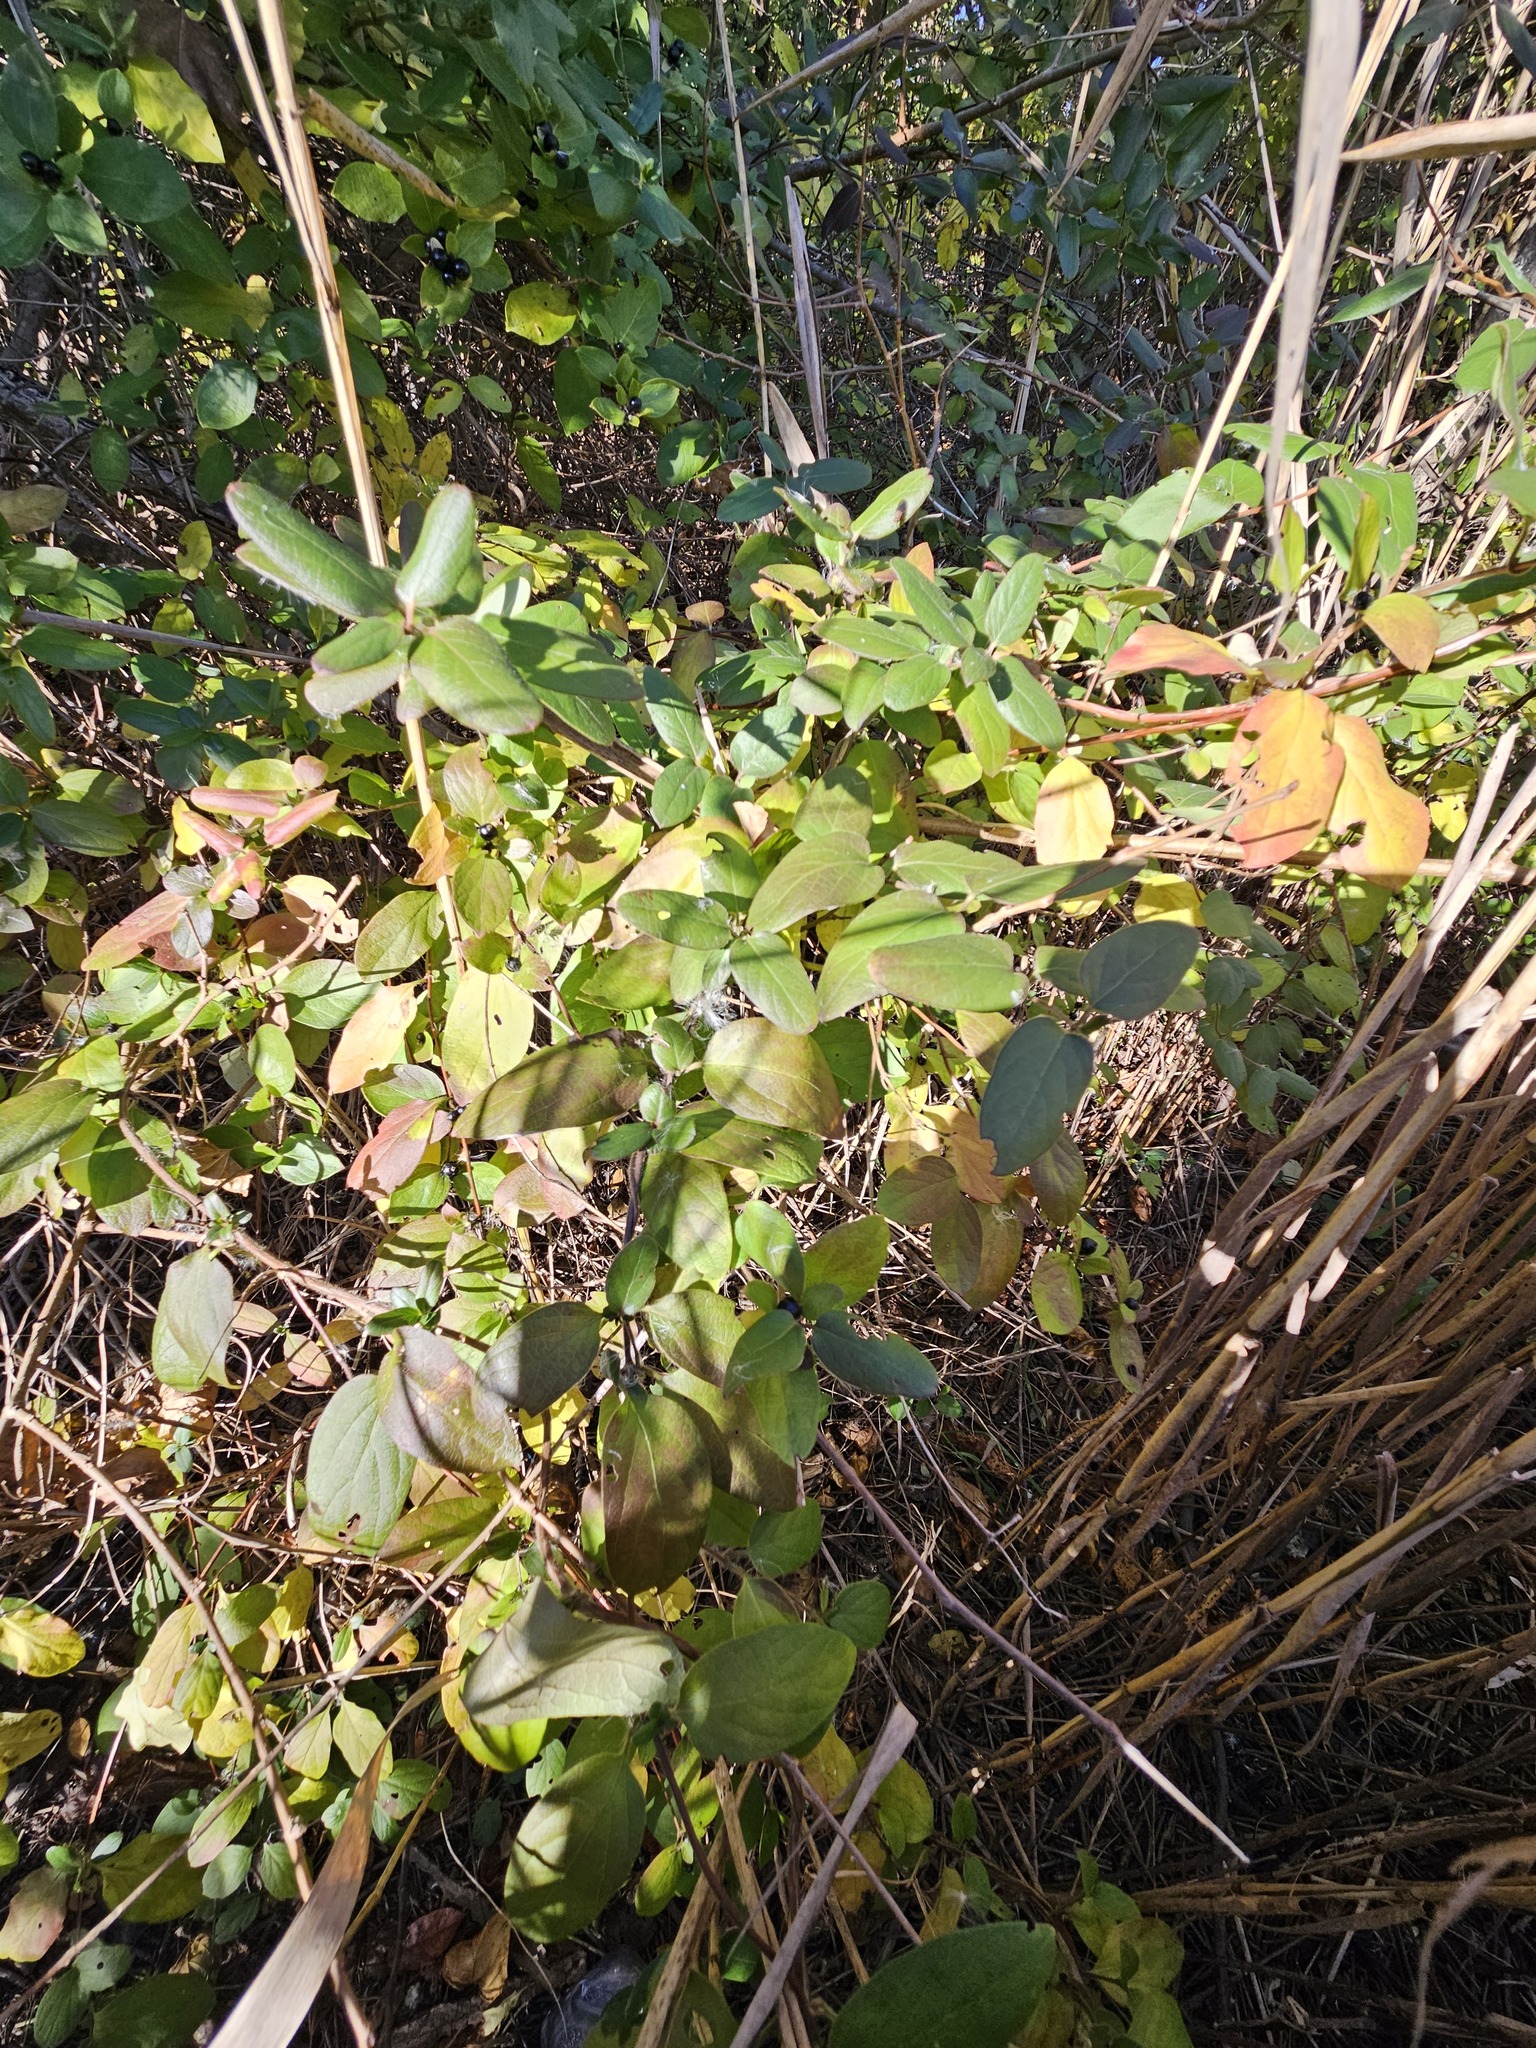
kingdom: Plantae
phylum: Tracheophyta
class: Magnoliopsida
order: Dipsacales
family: Caprifoliaceae
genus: Lonicera
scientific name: Lonicera japonica
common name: Japanese honeysuckle
